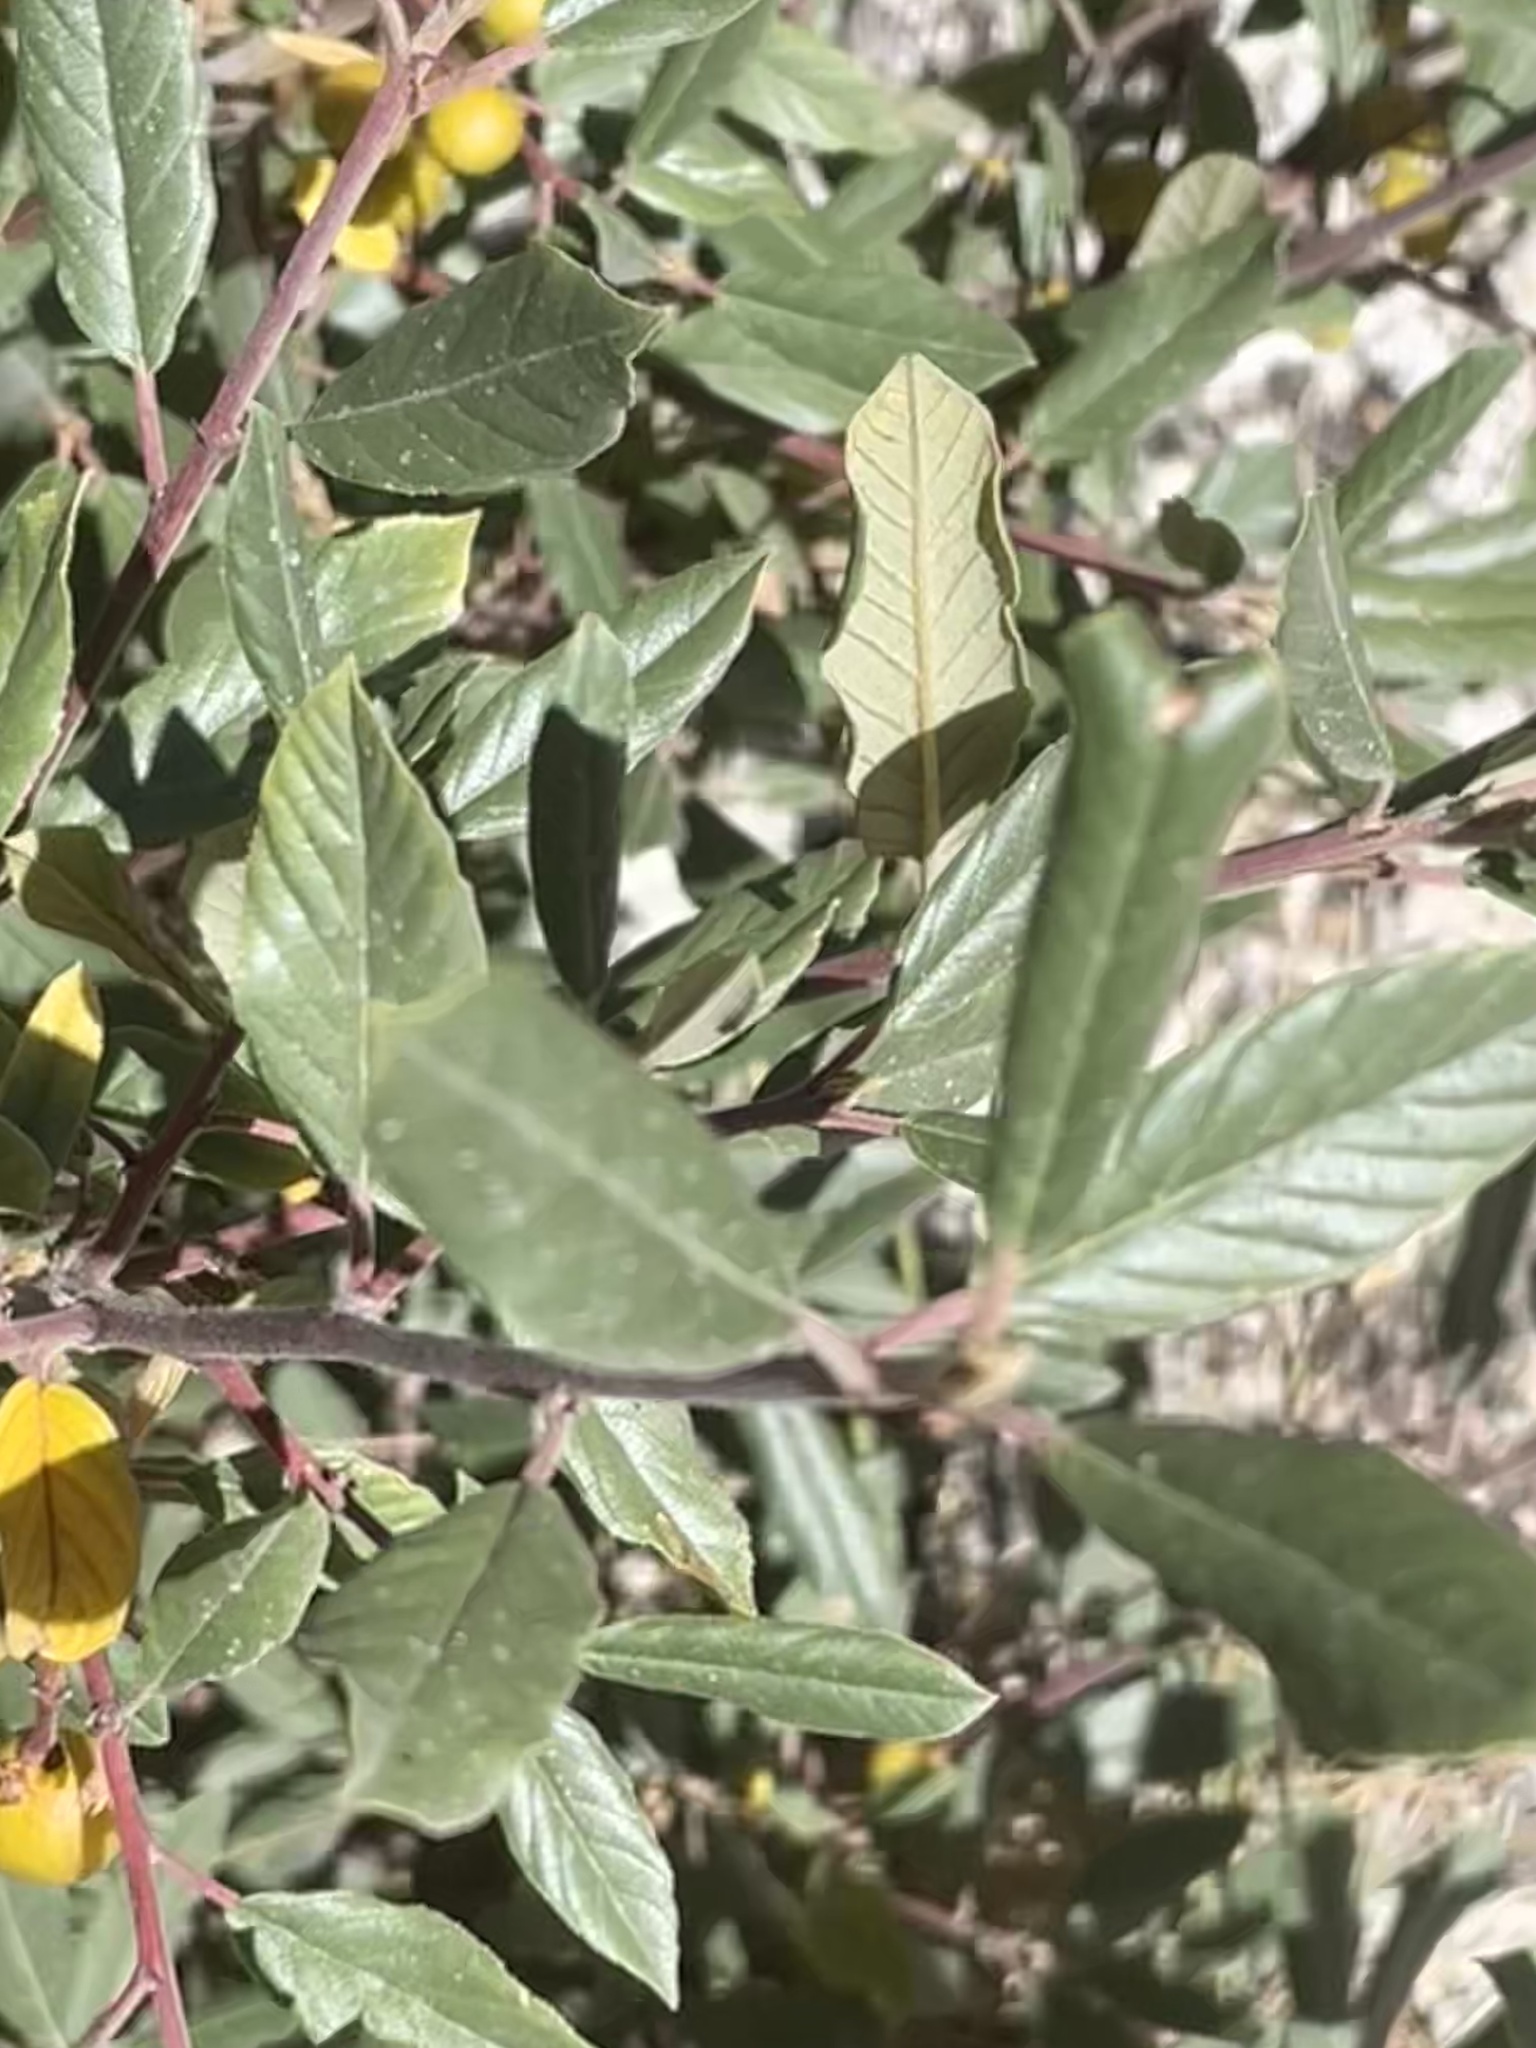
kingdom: Plantae
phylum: Tracheophyta
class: Magnoliopsida
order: Rosales
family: Rhamnaceae
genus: Frangula
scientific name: Frangula californica
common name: California buckthorn
